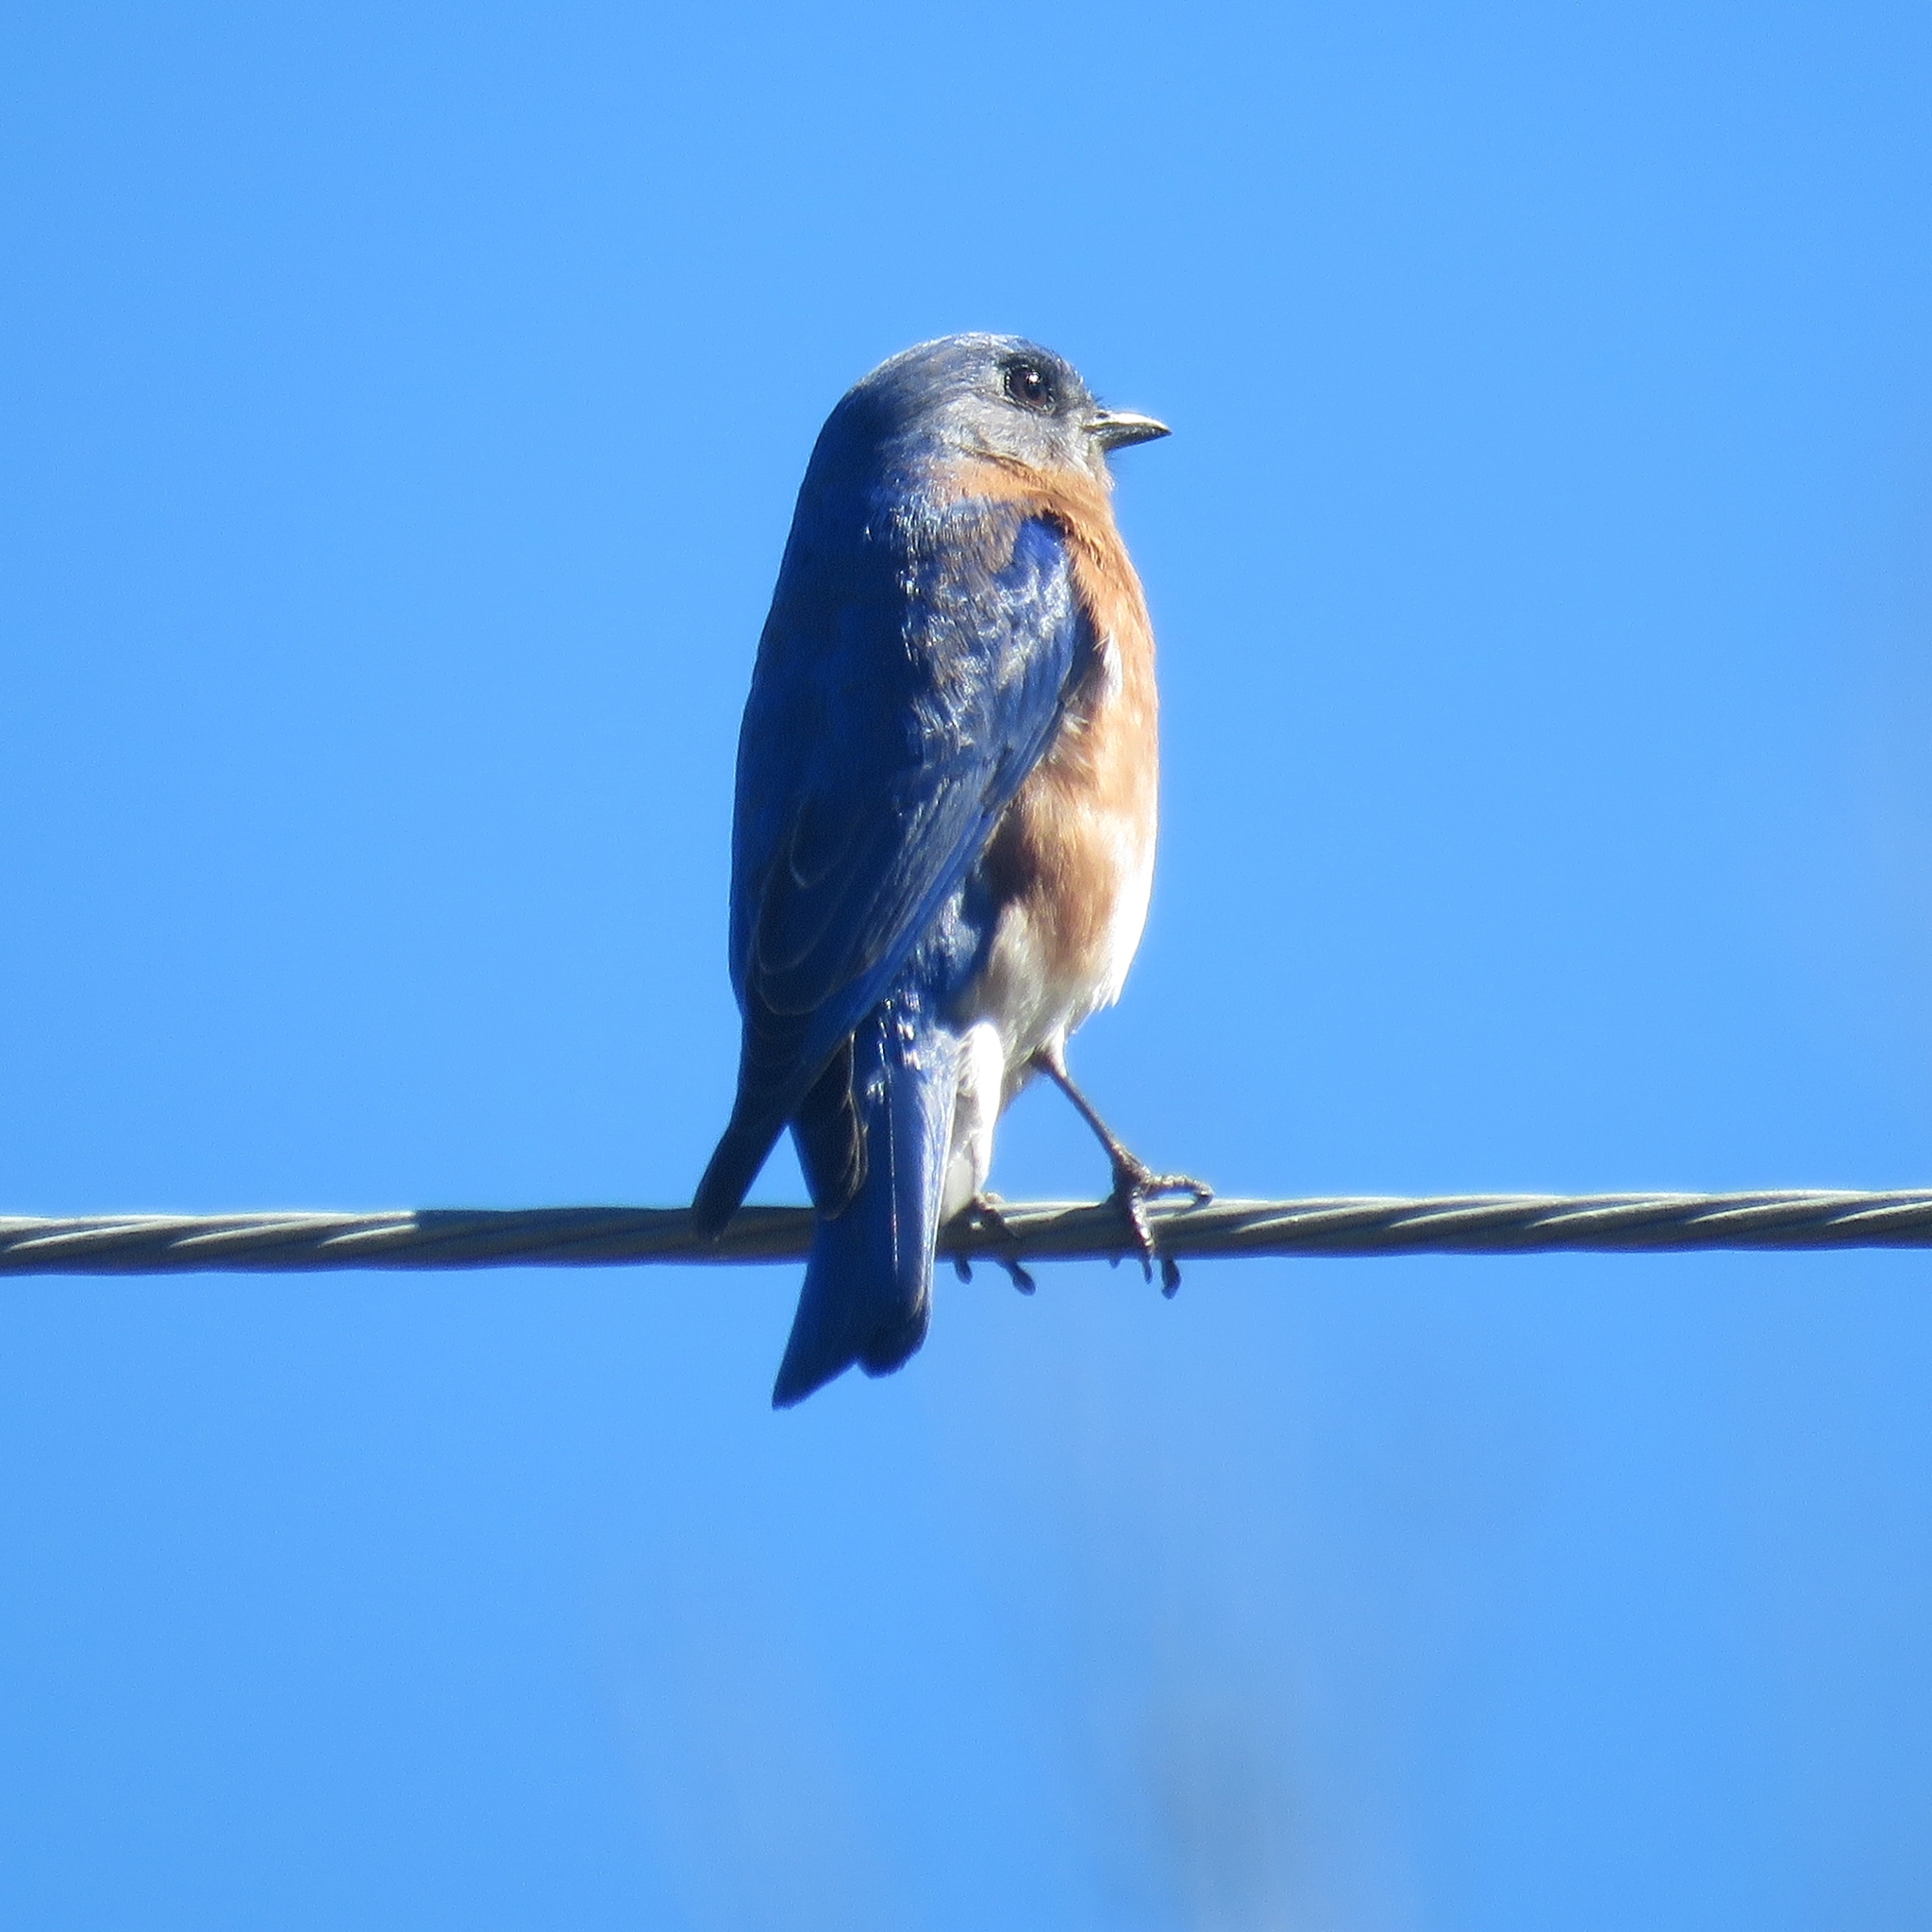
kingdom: Animalia
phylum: Chordata
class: Aves
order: Passeriformes
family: Turdidae
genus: Sialia
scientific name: Sialia sialis
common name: Eastern bluebird
